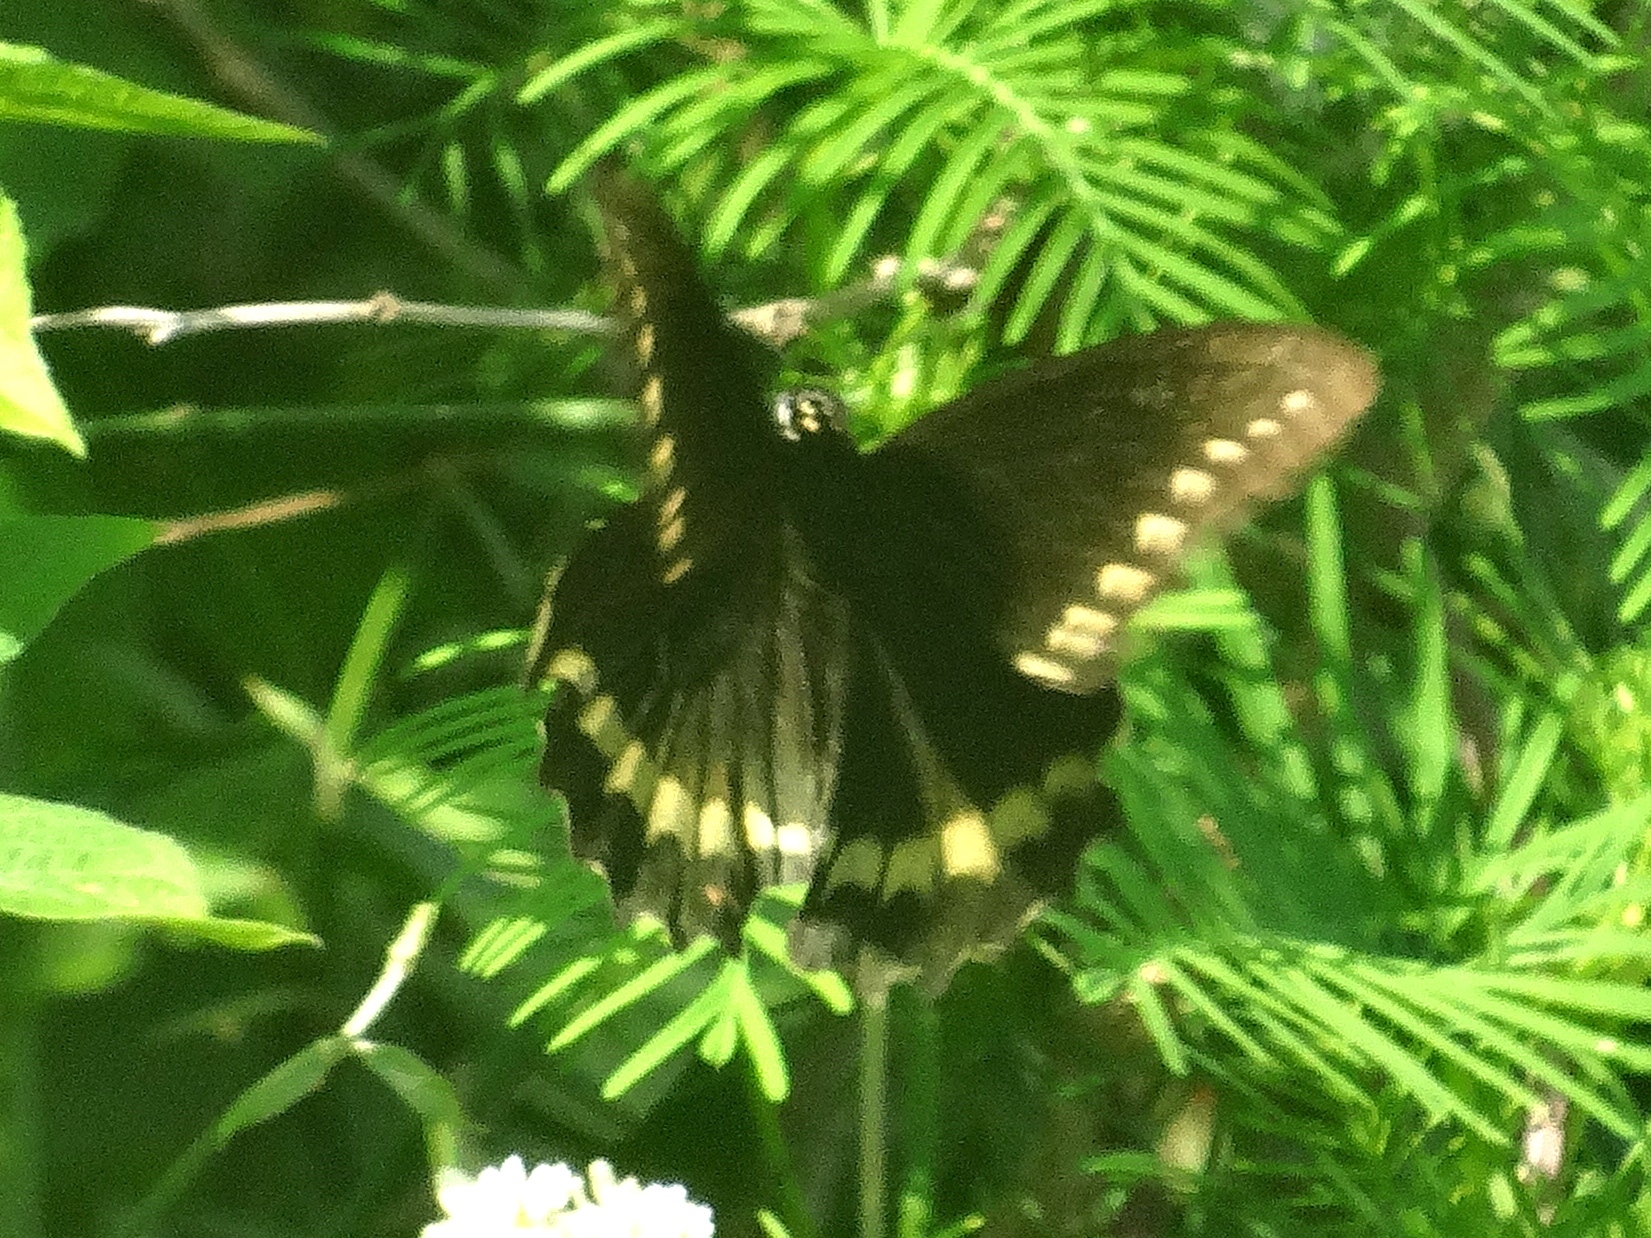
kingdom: Animalia
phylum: Arthropoda
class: Insecta
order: Lepidoptera
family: Papilionidae
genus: Battus
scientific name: Battus polydamas
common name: Polydamas swallowtail
